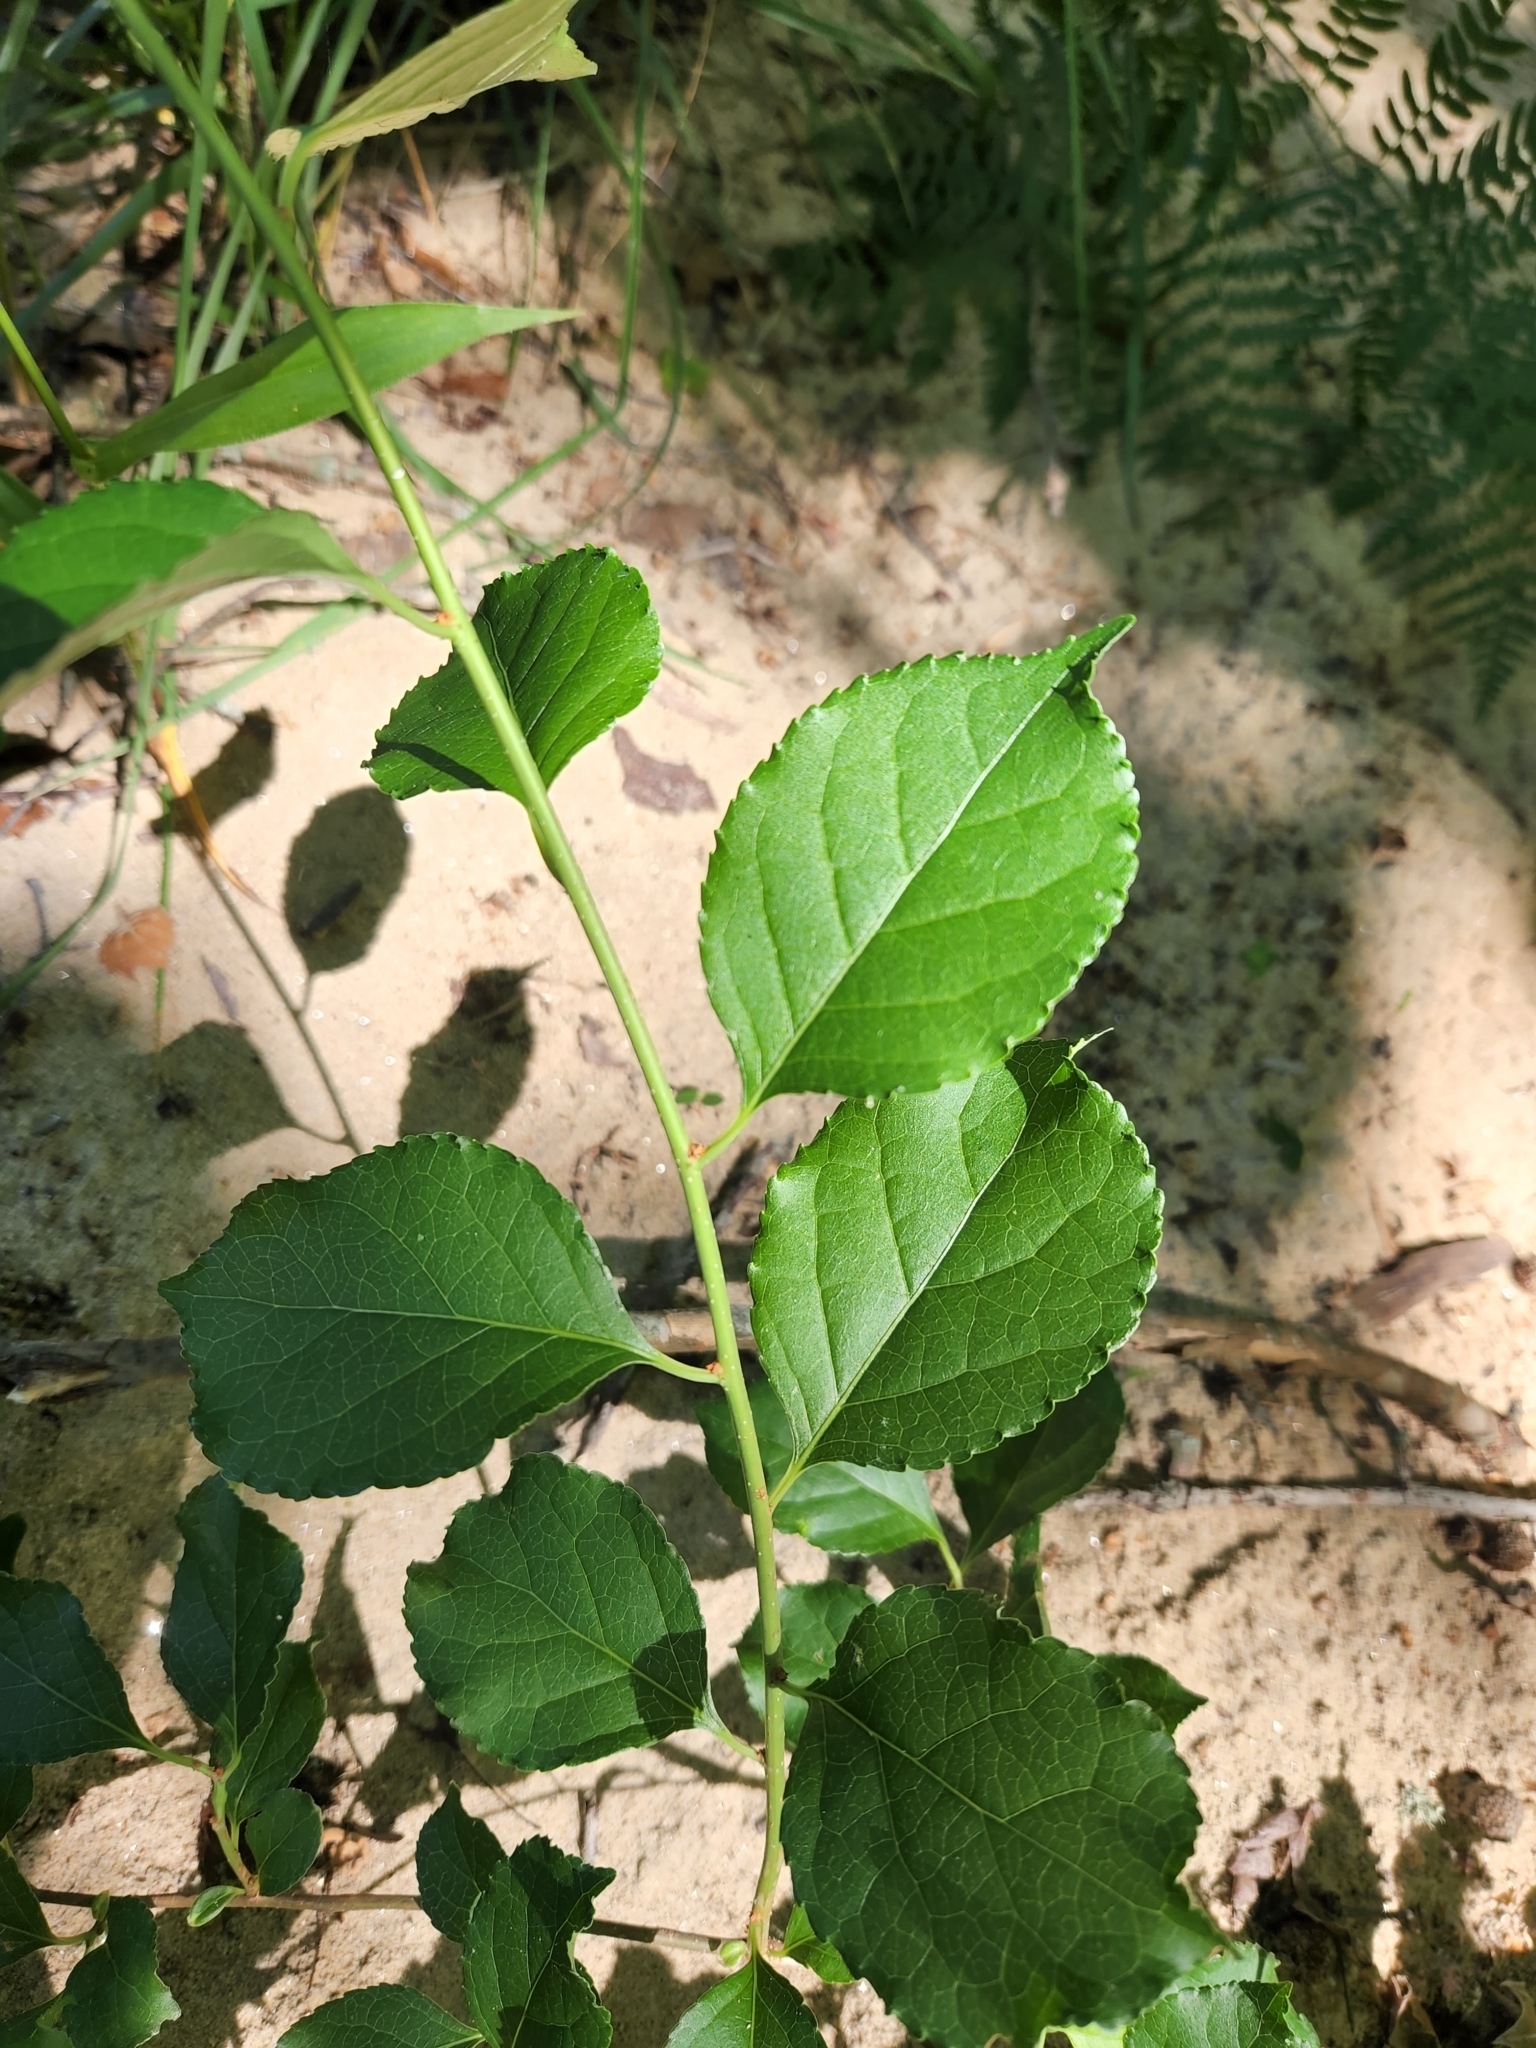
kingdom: Plantae
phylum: Tracheophyta
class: Magnoliopsida
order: Celastrales
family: Celastraceae
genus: Celastrus
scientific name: Celastrus orbiculatus
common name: Oriental bittersweet
